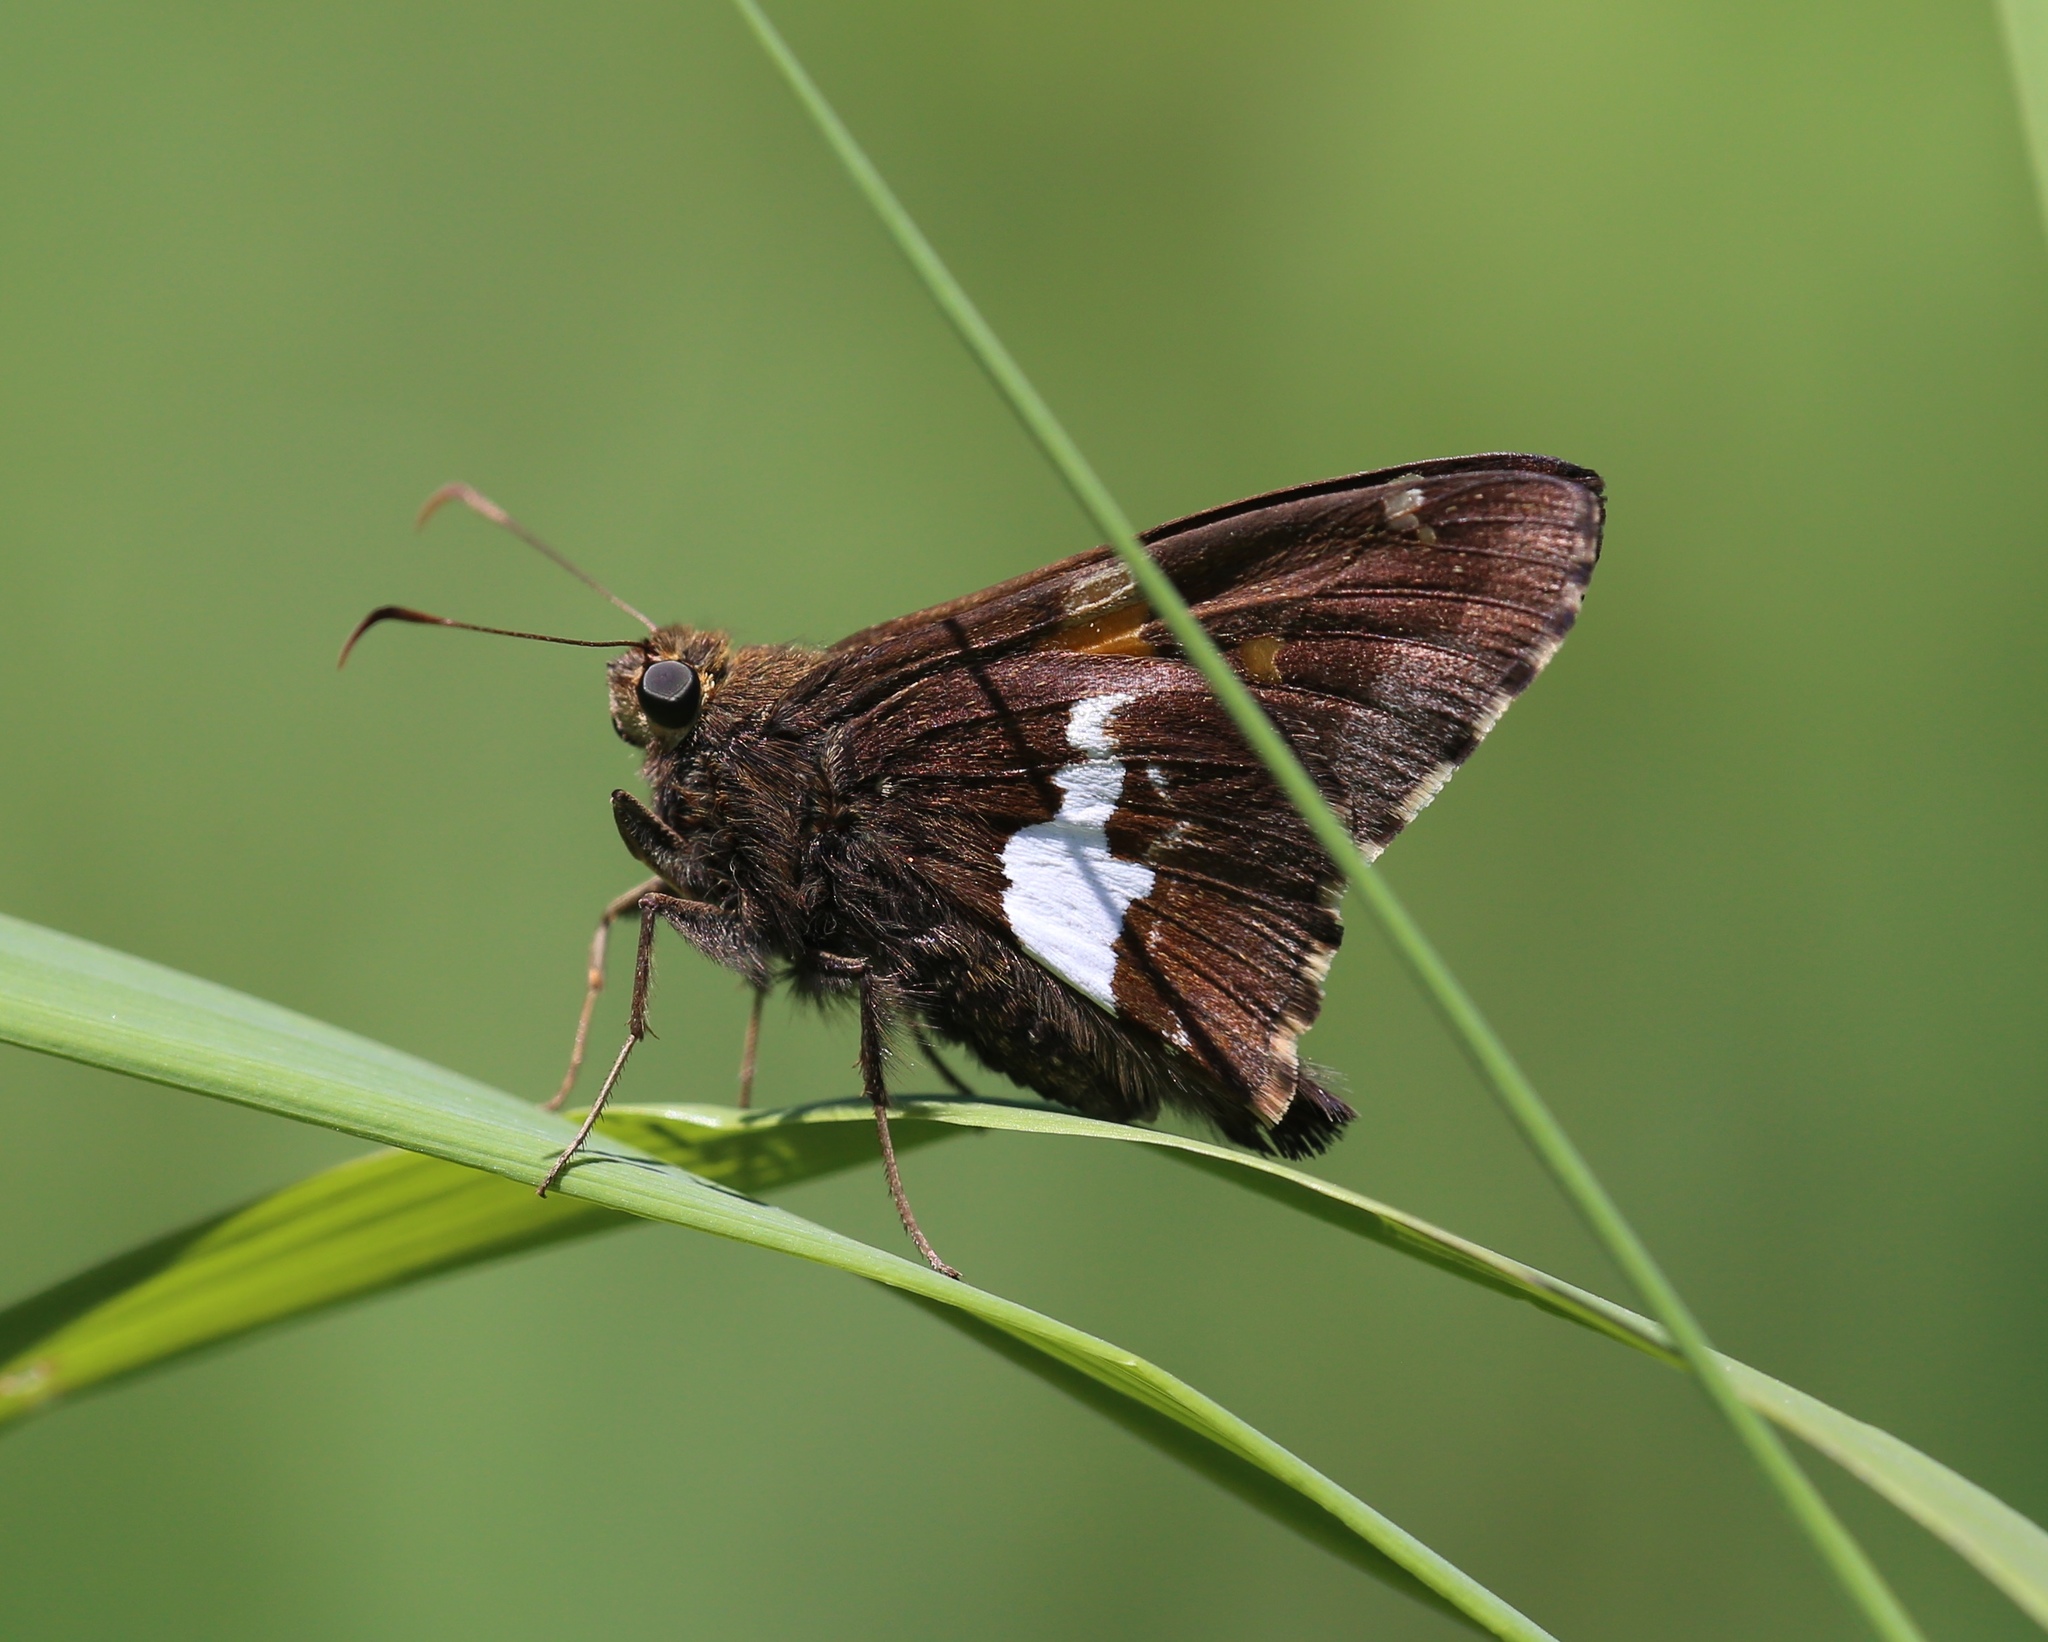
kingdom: Animalia
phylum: Arthropoda
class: Insecta
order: Lepidoptera
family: Hesperiidae
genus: Epargyreus
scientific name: Epargyreus clarus
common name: Silver-spotted skipper
